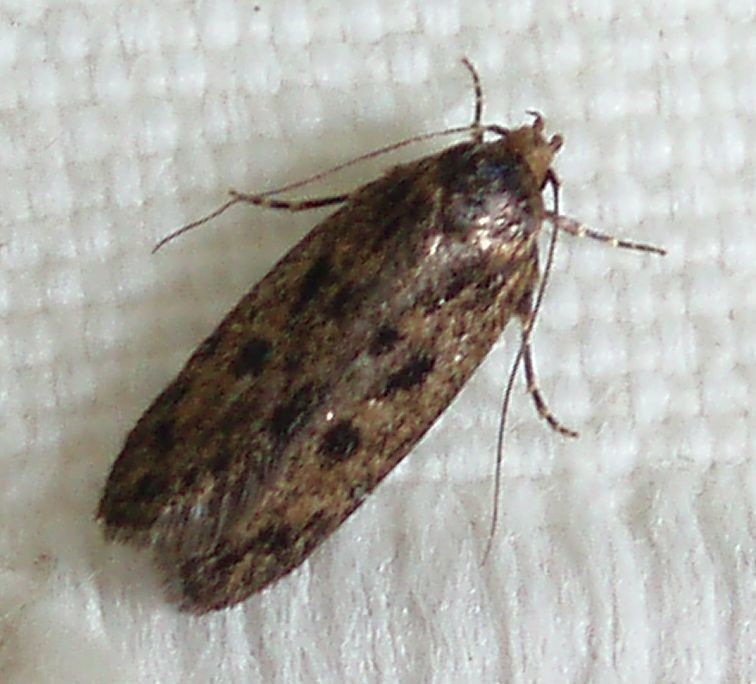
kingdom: Animalia
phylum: Arthropoda
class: Insecta
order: Lepidoptera
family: Oecophoridae
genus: Hofmannophila
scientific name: Hofmannophila pseudospretella
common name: Brown house moth
